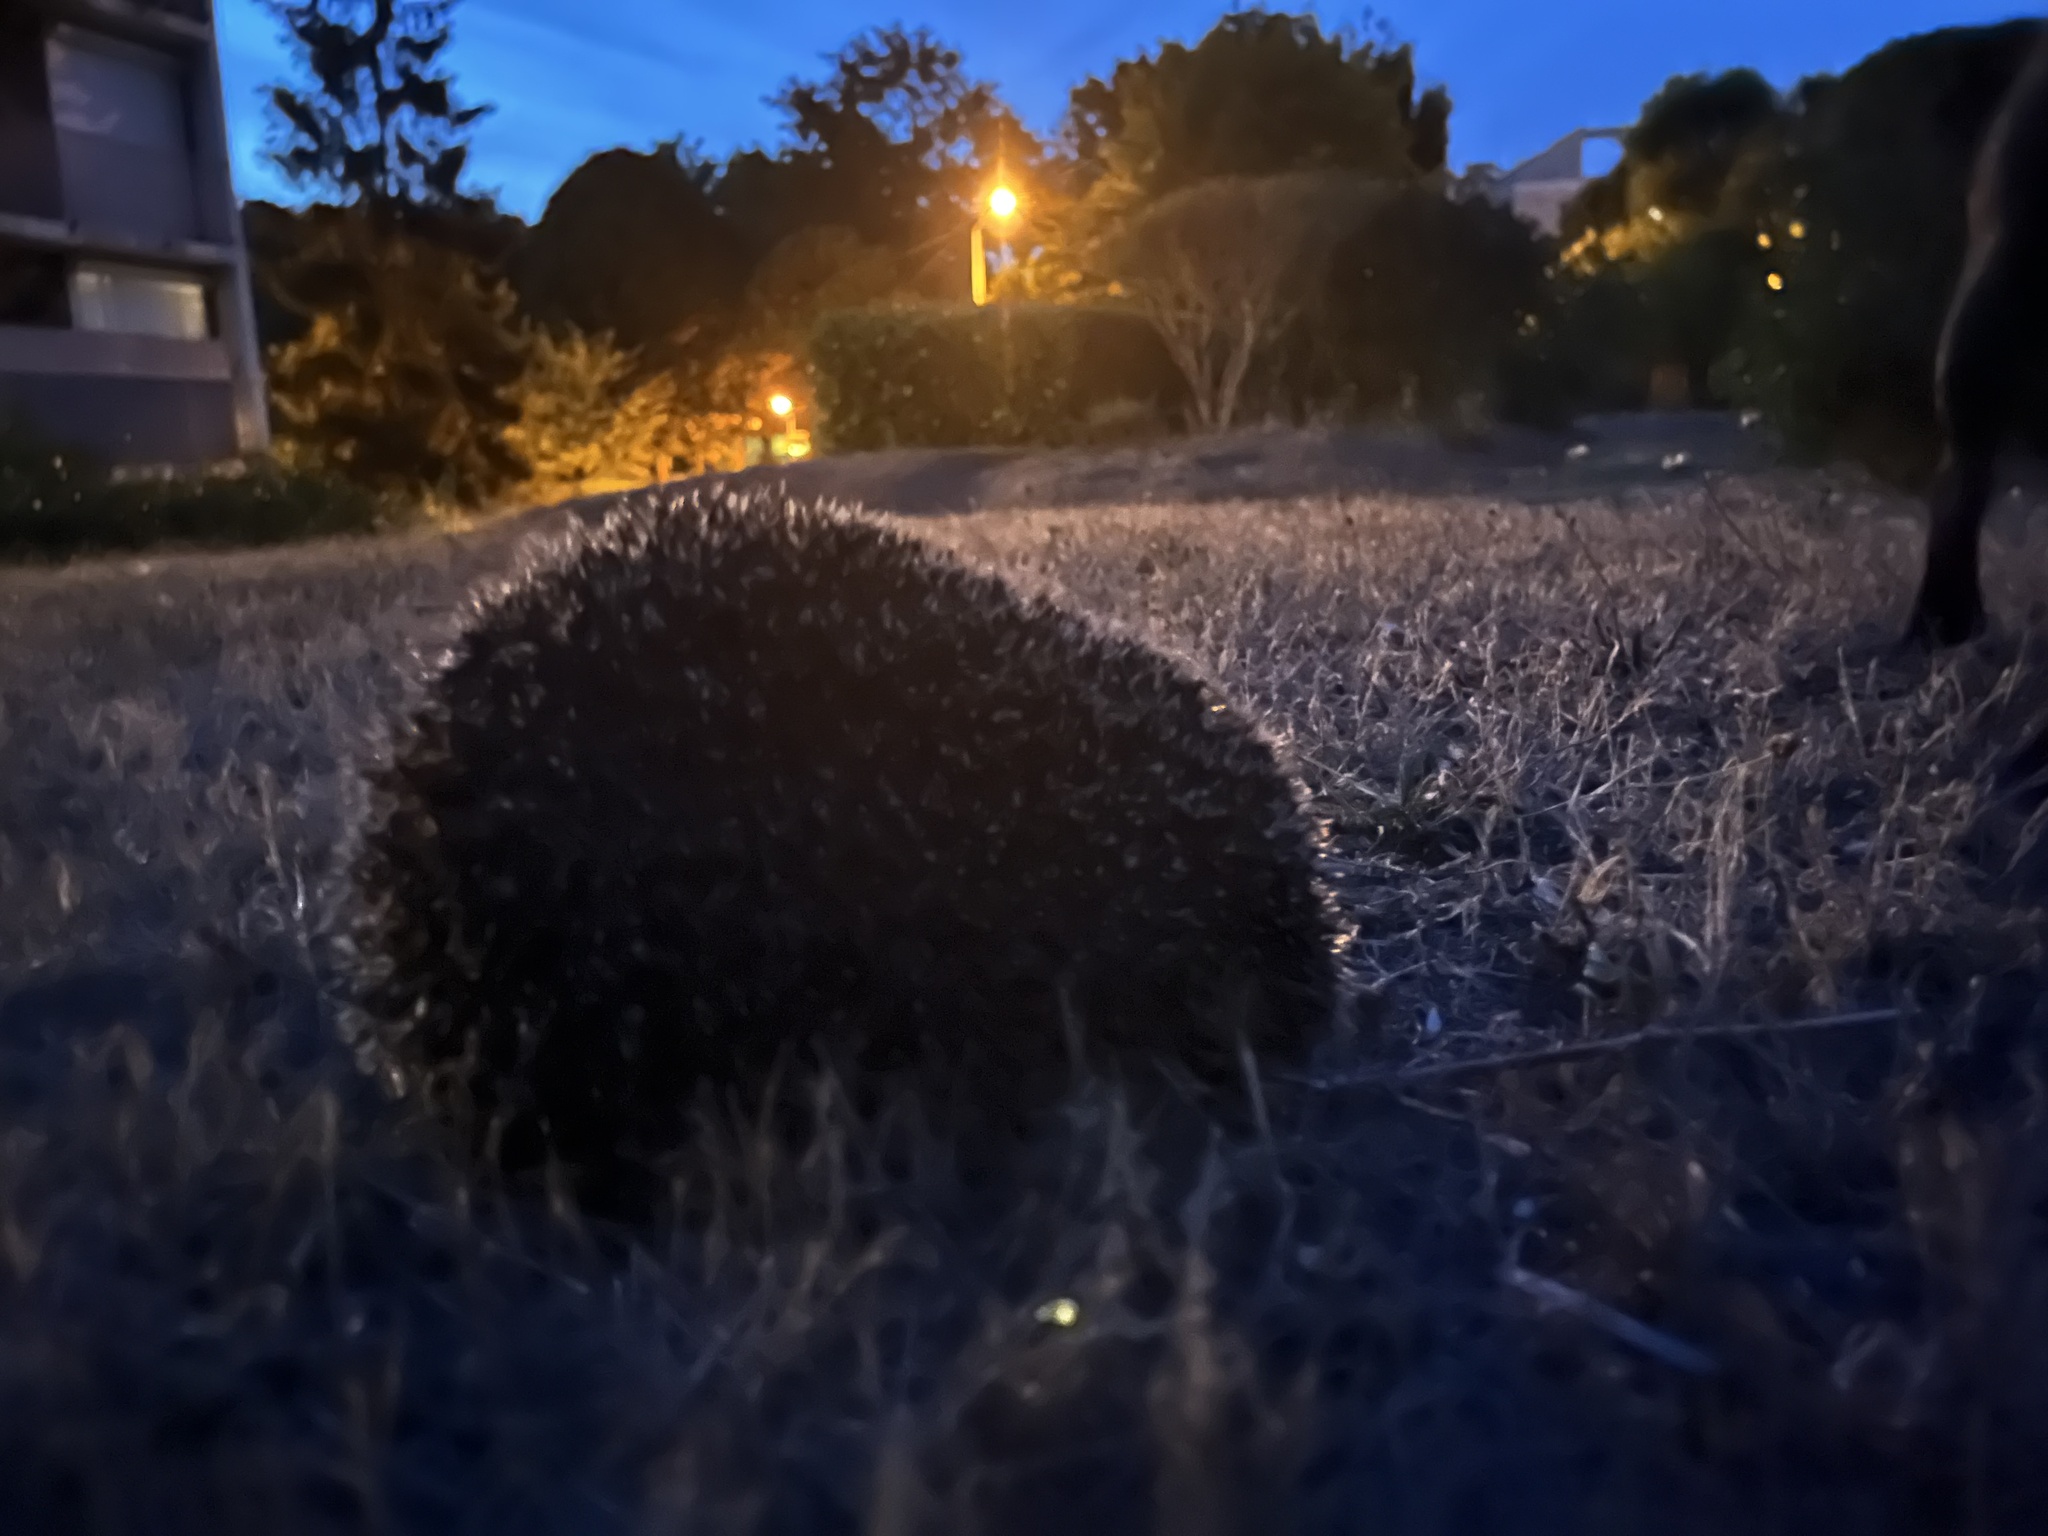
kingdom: Animalia
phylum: Chordata
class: Mammalia
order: Erinaceomorpha
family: Erinaceidae
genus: Erinaceus
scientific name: Erinaceus europaeus
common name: West european hedgehog
